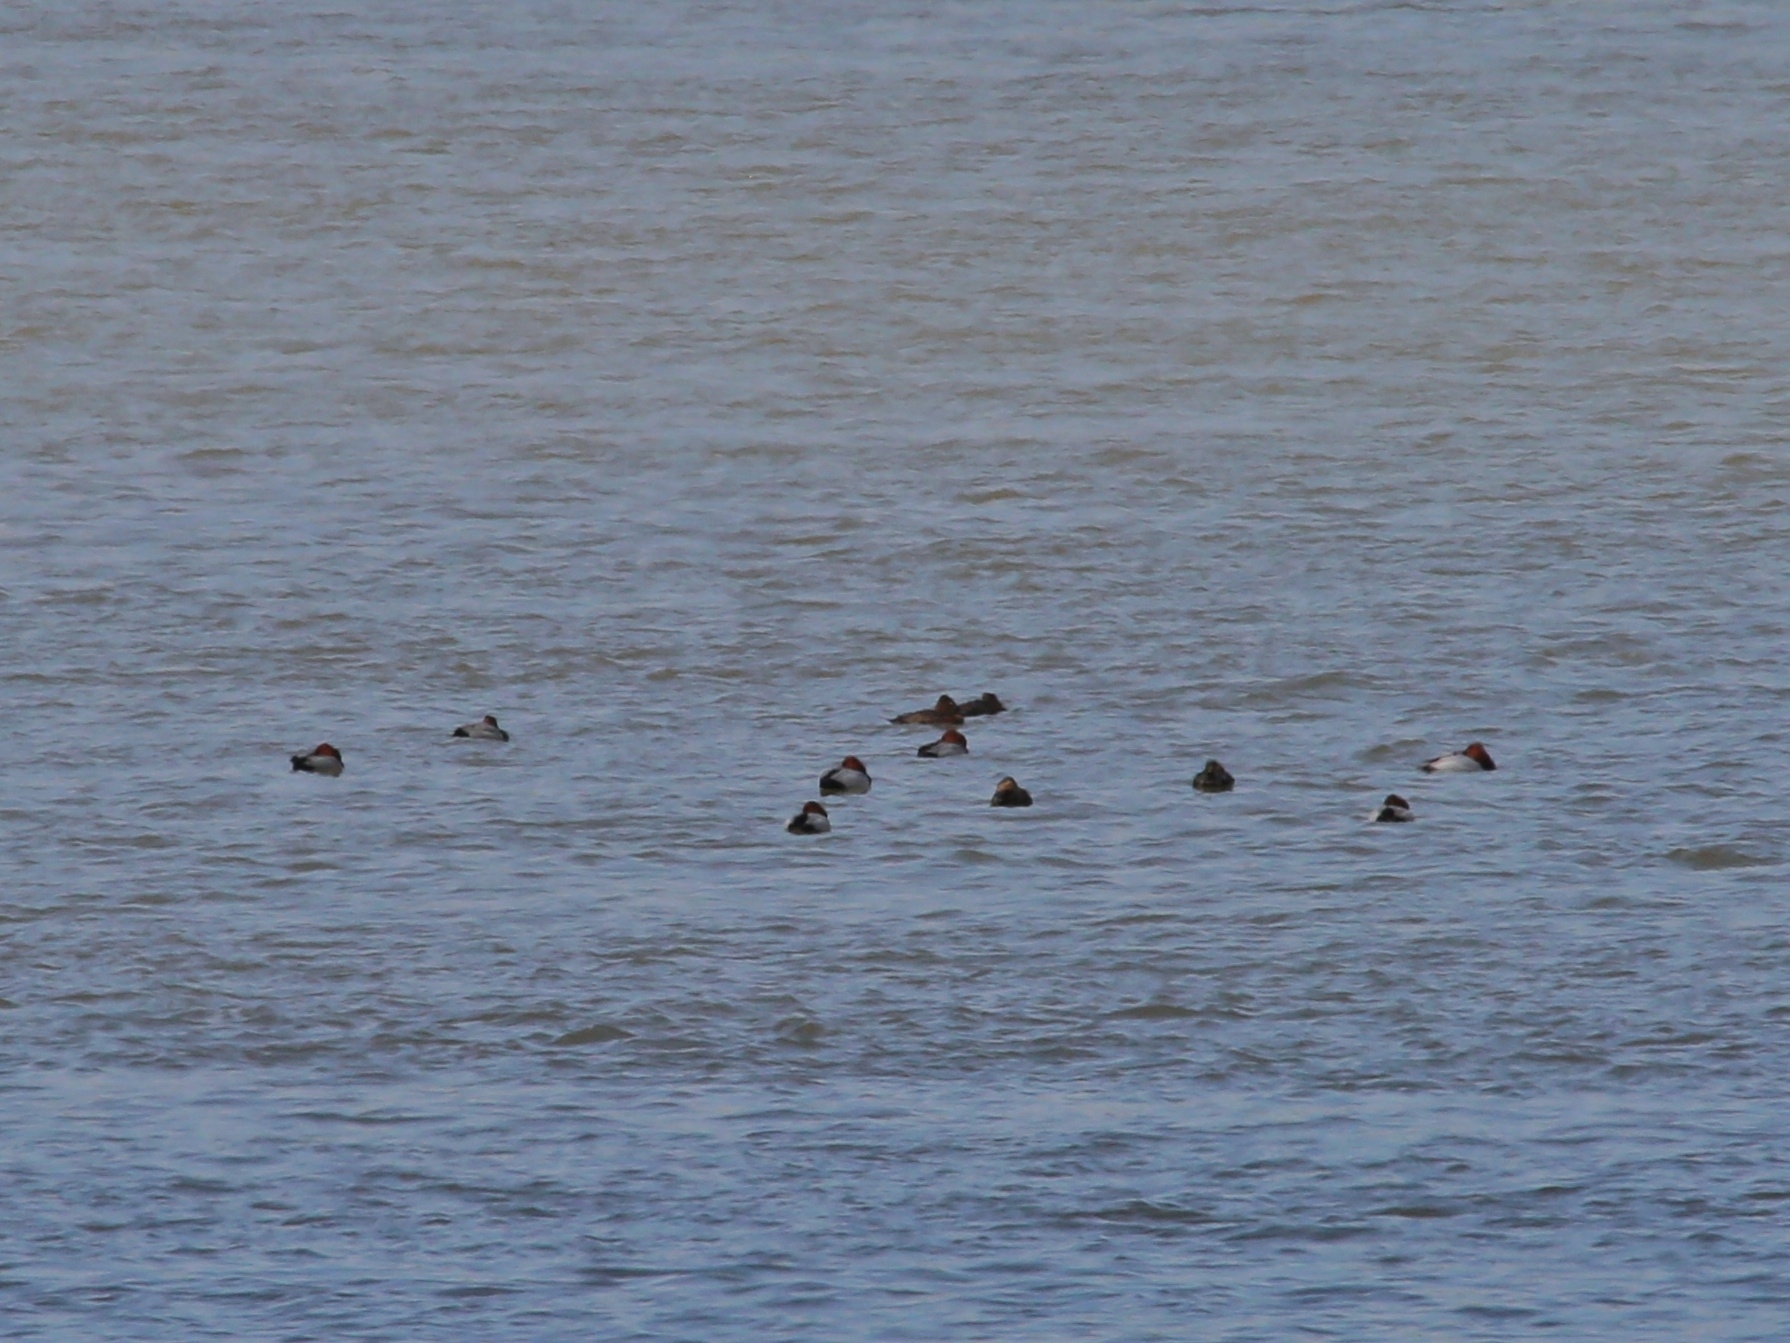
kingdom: Animalia
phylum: Chordata
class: Aves
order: Anseriformes
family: Anatidae
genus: Aythya
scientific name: Aythya ferina
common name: Common pochard
